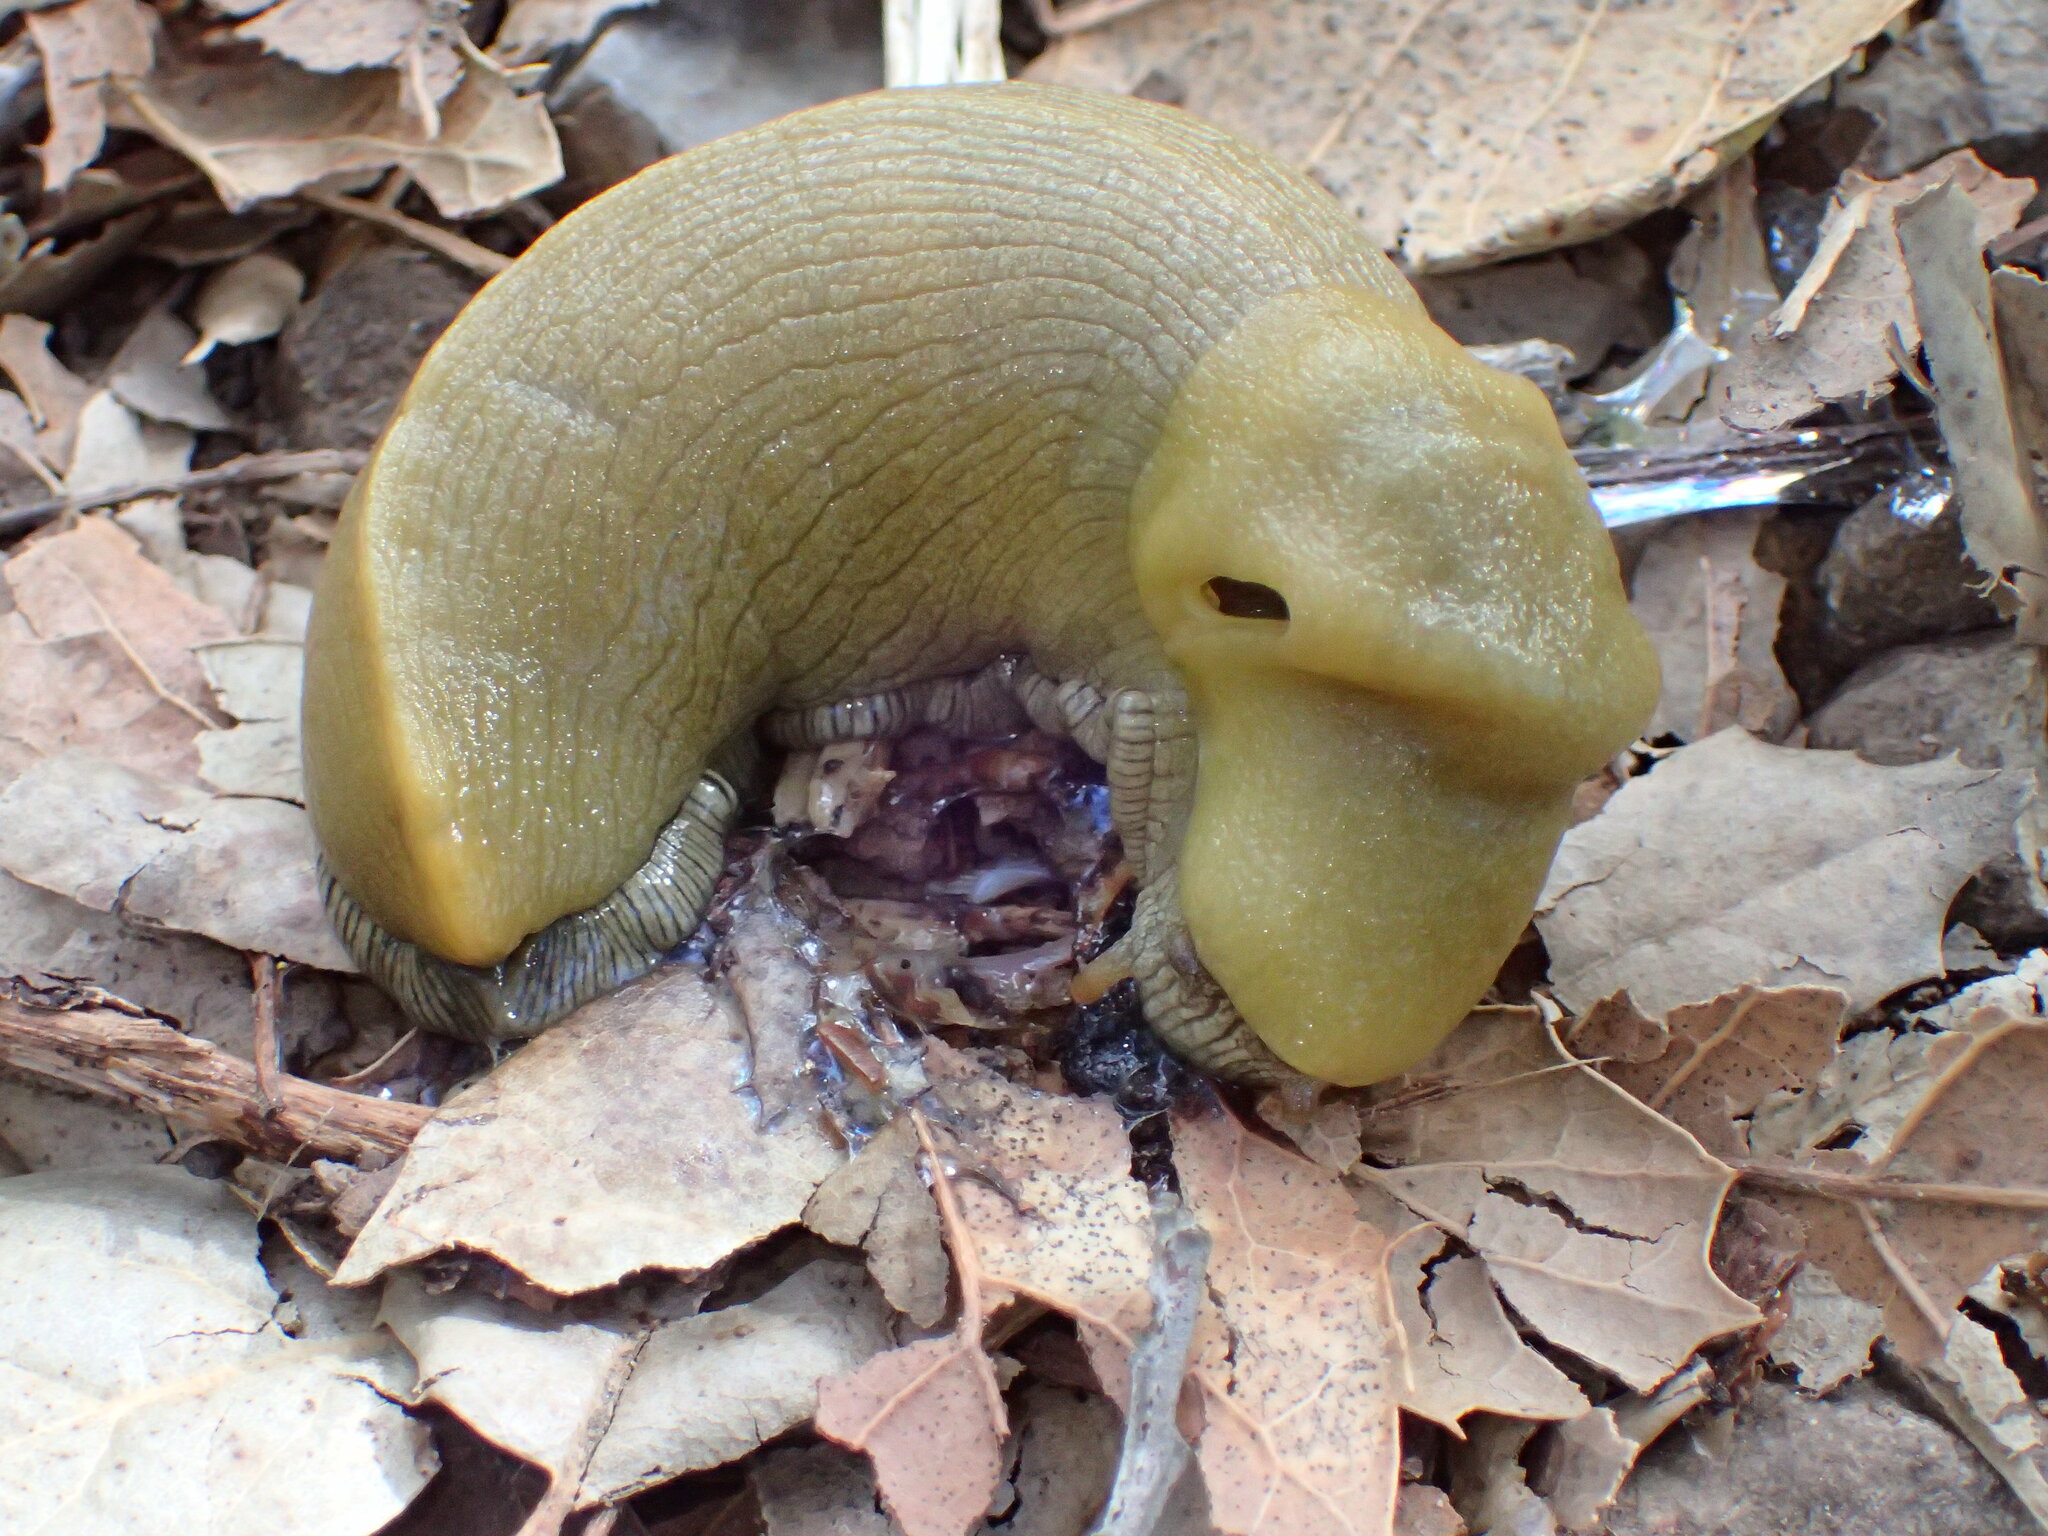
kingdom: Animalia
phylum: Mollusca
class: Gastropoda
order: Stylommatophora
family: Ariolimacidae
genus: Ariolimax
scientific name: Ariolimax stramineus
